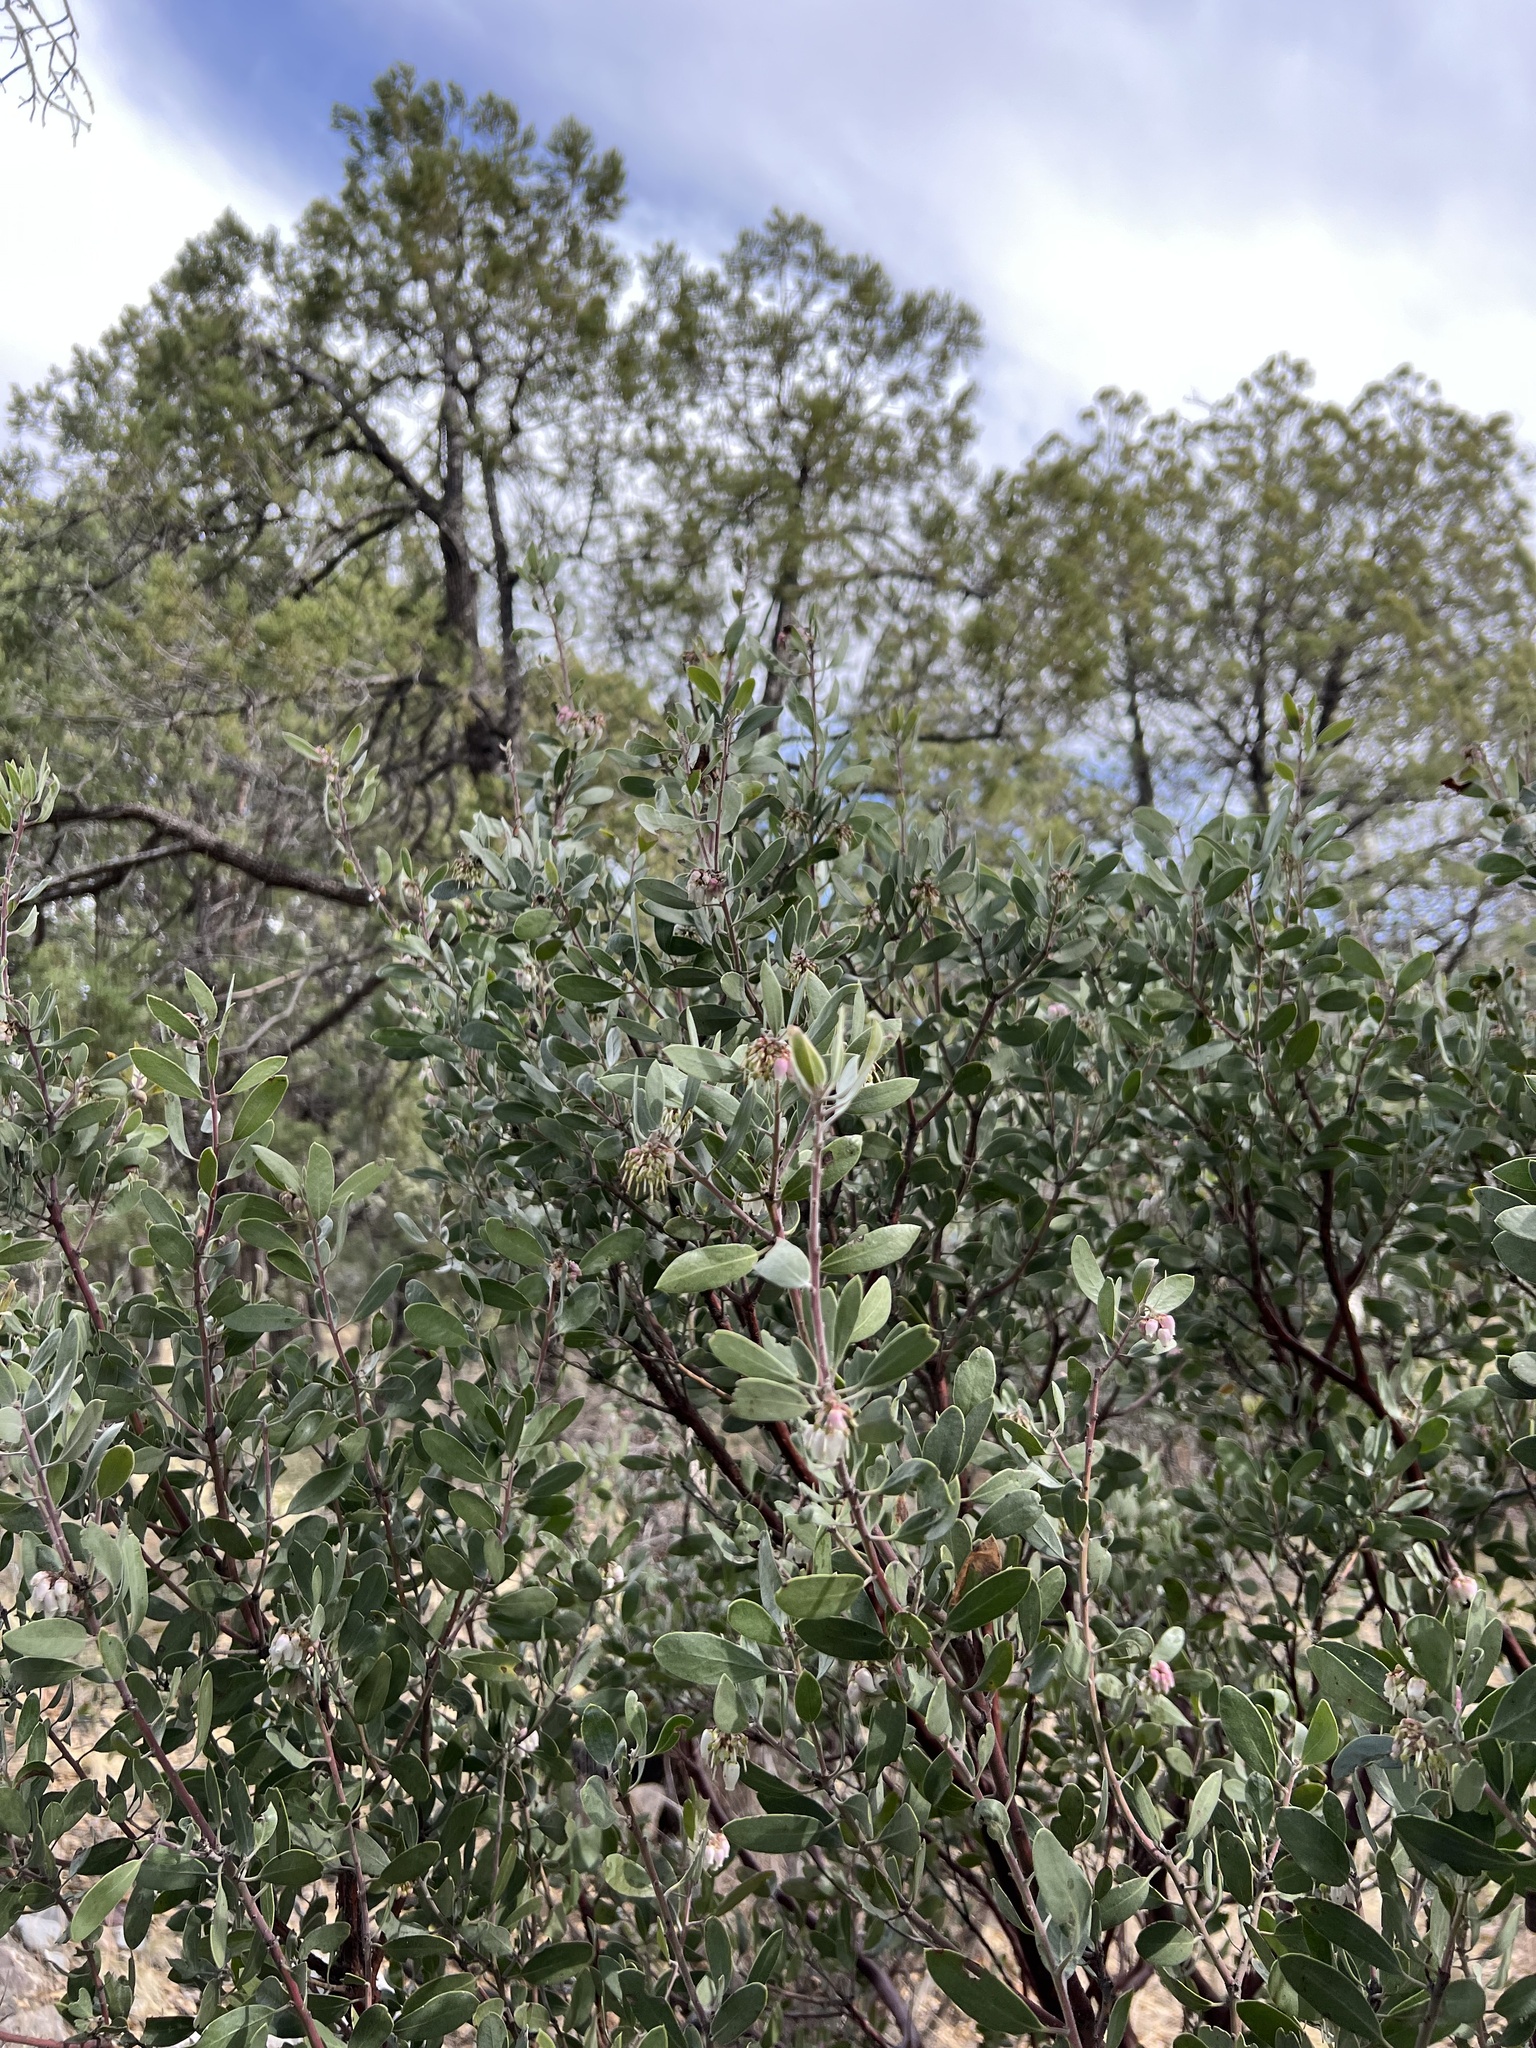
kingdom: Plantae
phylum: Tracheophyta
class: Magnoliopsida
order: Ericales
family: Ericaceae
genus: Arctostaphylos
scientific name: Arctostaphylos pungens
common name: Mexican manzanita
